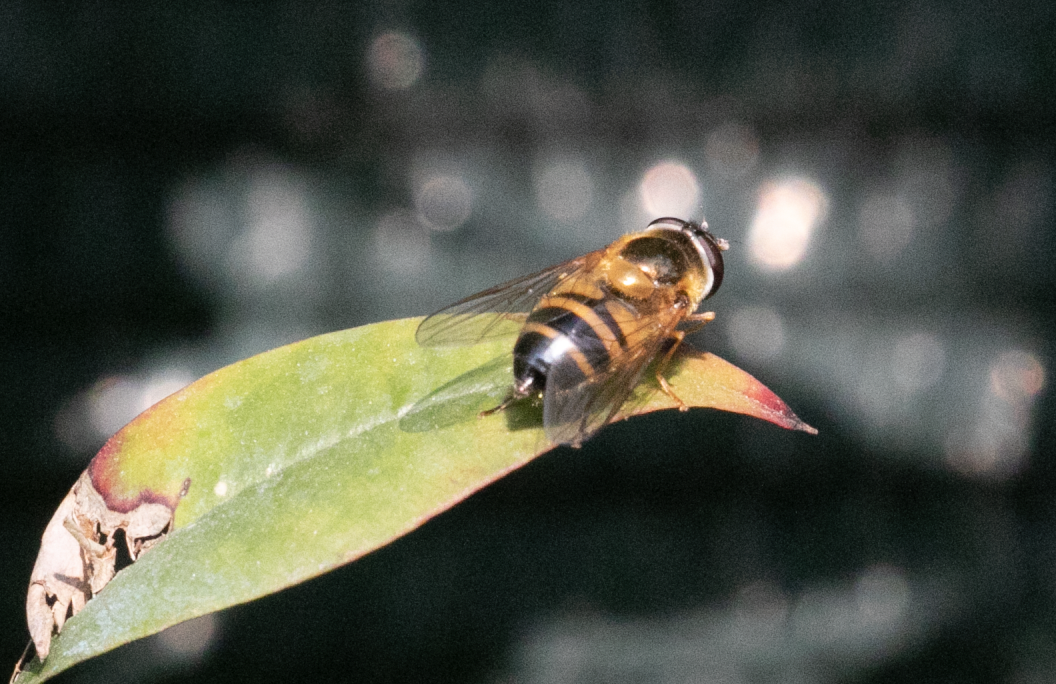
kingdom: Animalia
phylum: Arthropoda
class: Insecta
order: Diptera
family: Syrphidae
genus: Epistrophe
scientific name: Epistrophe eligans
